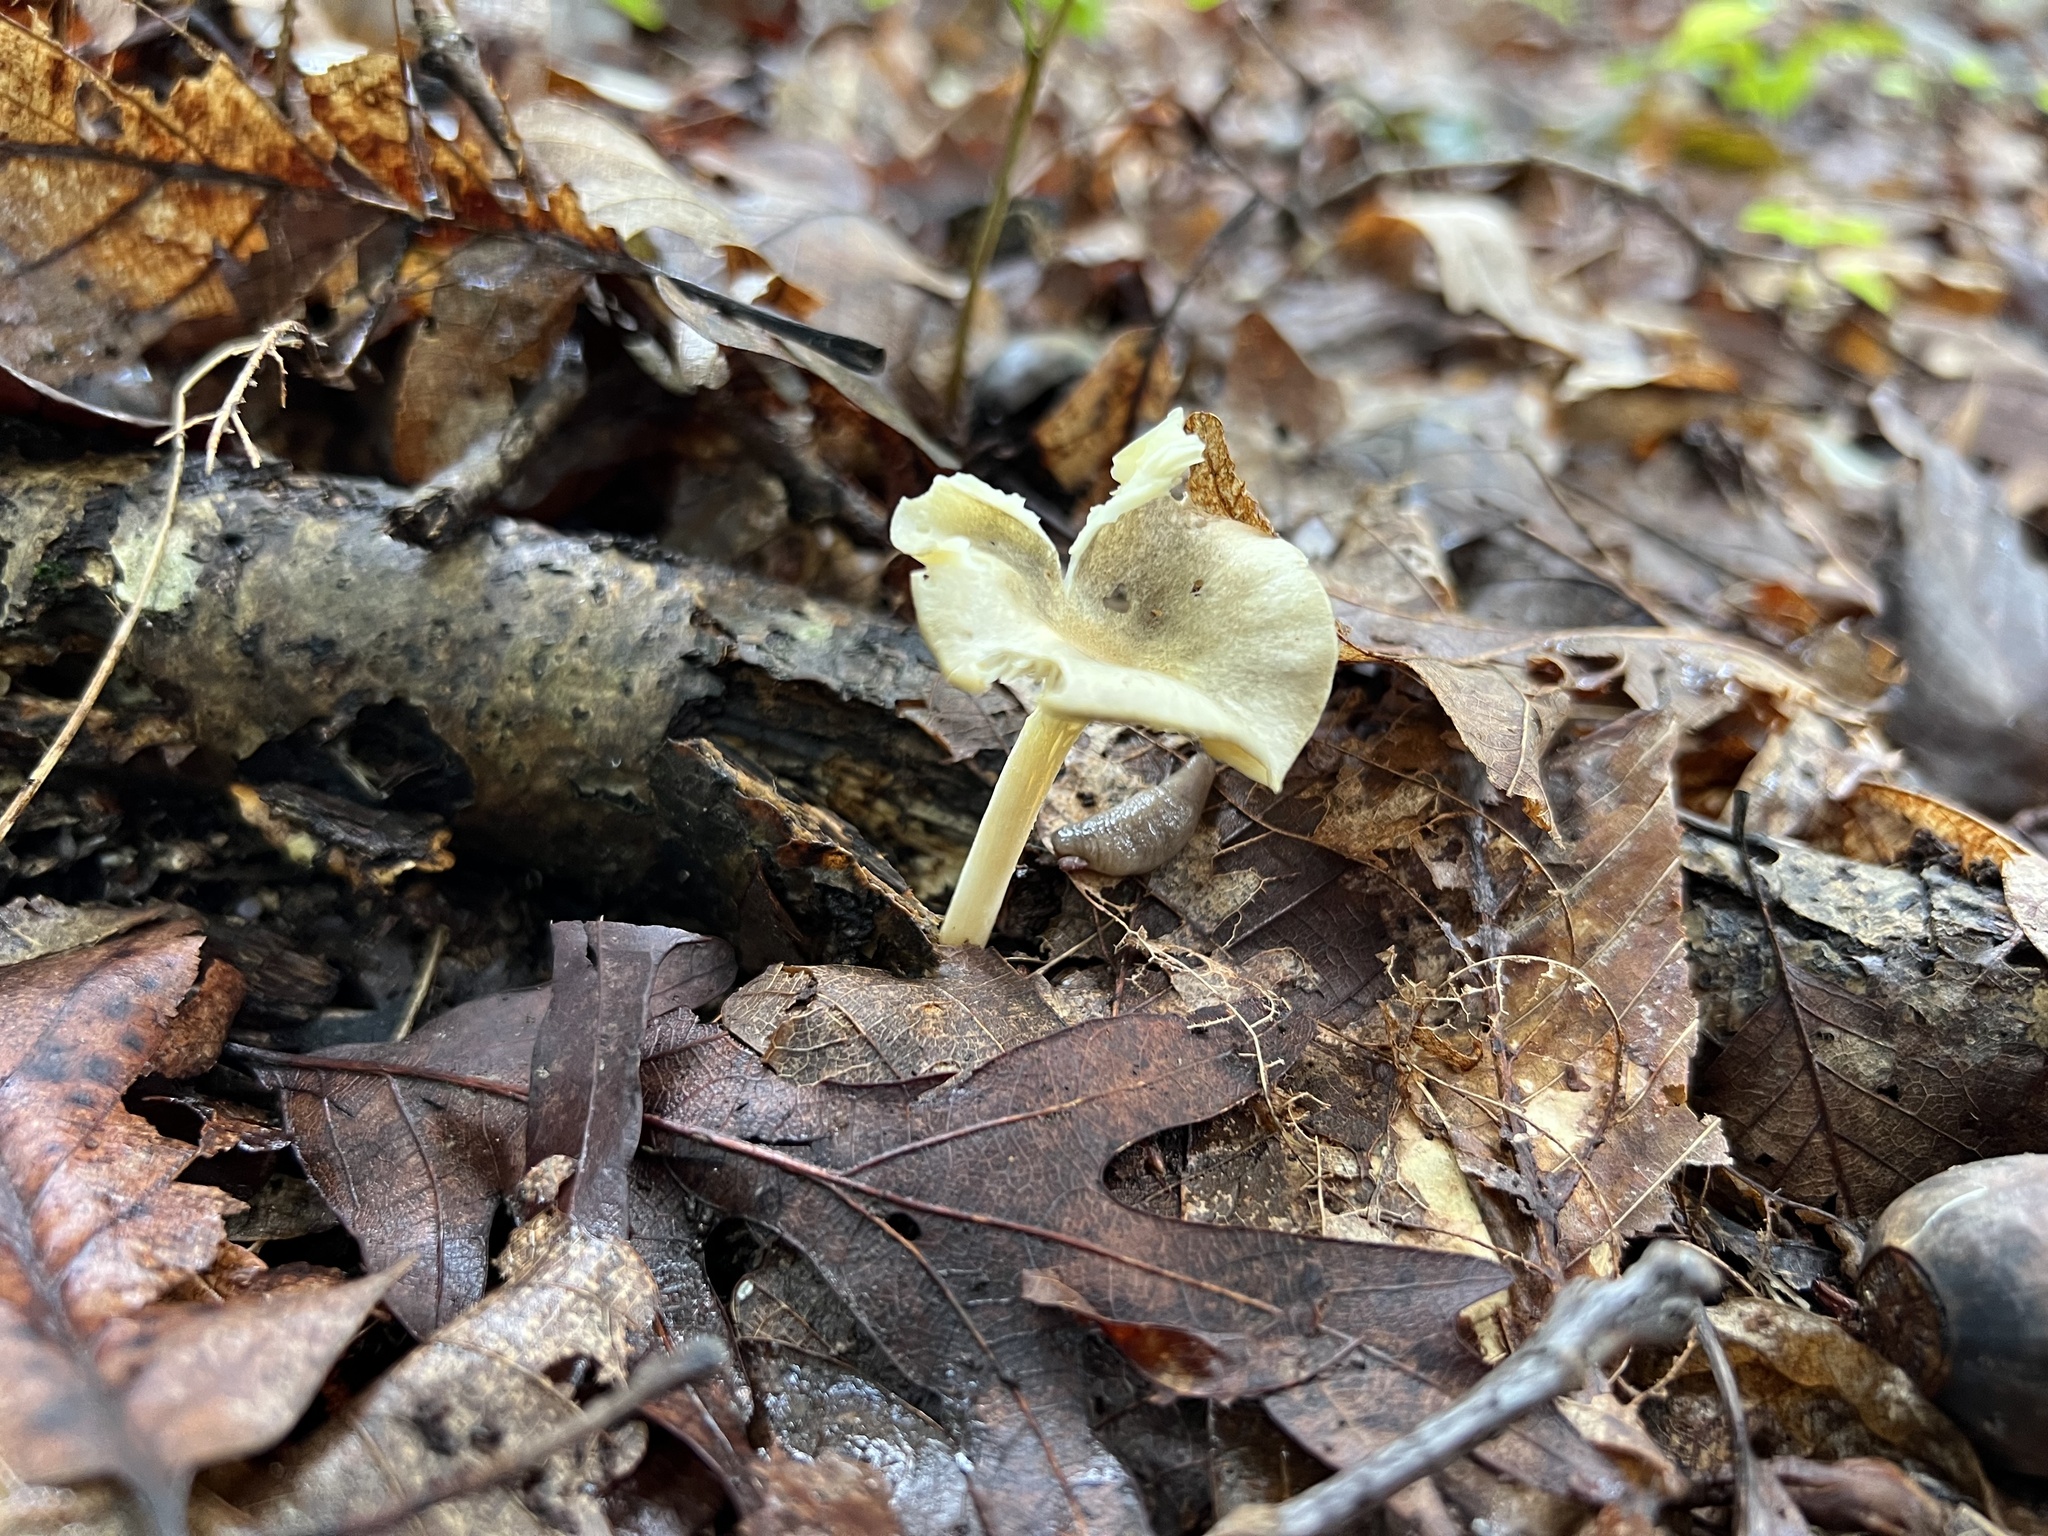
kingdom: Fungi
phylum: Basidiomycota
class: Agaricomycetes
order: Agaricales
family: Marasmiaceae
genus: Gerronema
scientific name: Gerronema strombodes
